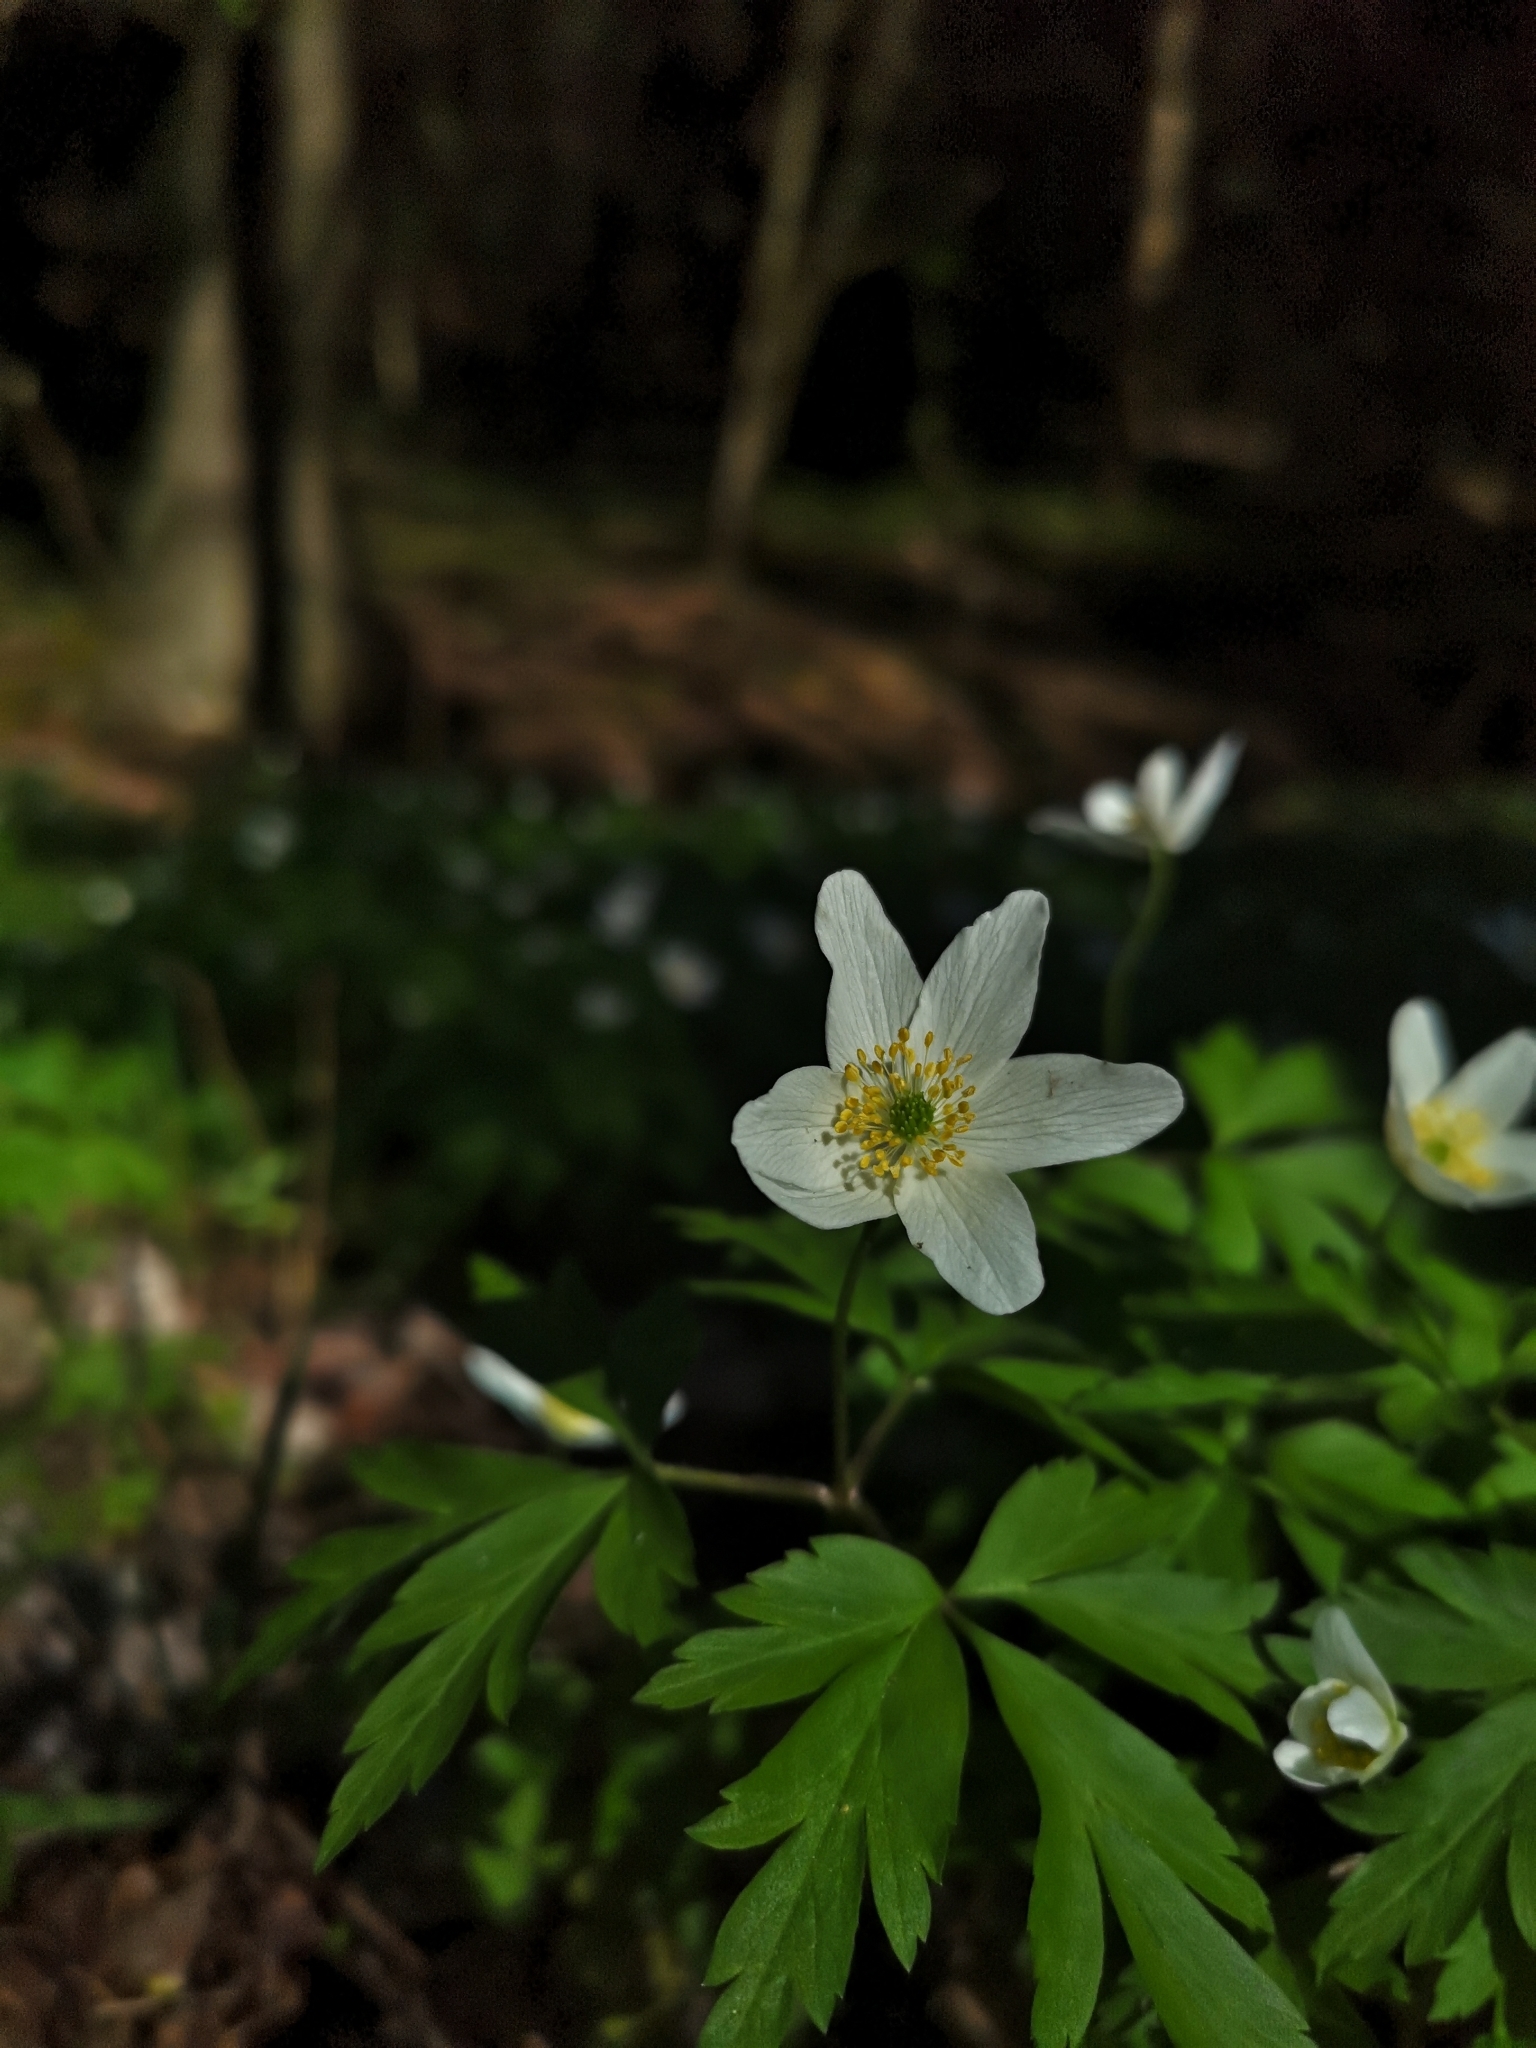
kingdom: Plantae
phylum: Tracheophyta
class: Magnoliopsida
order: Ranunculales
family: Ranunculaceae
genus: Anemone
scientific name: Anemone nemorosa
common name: Wood anemone
